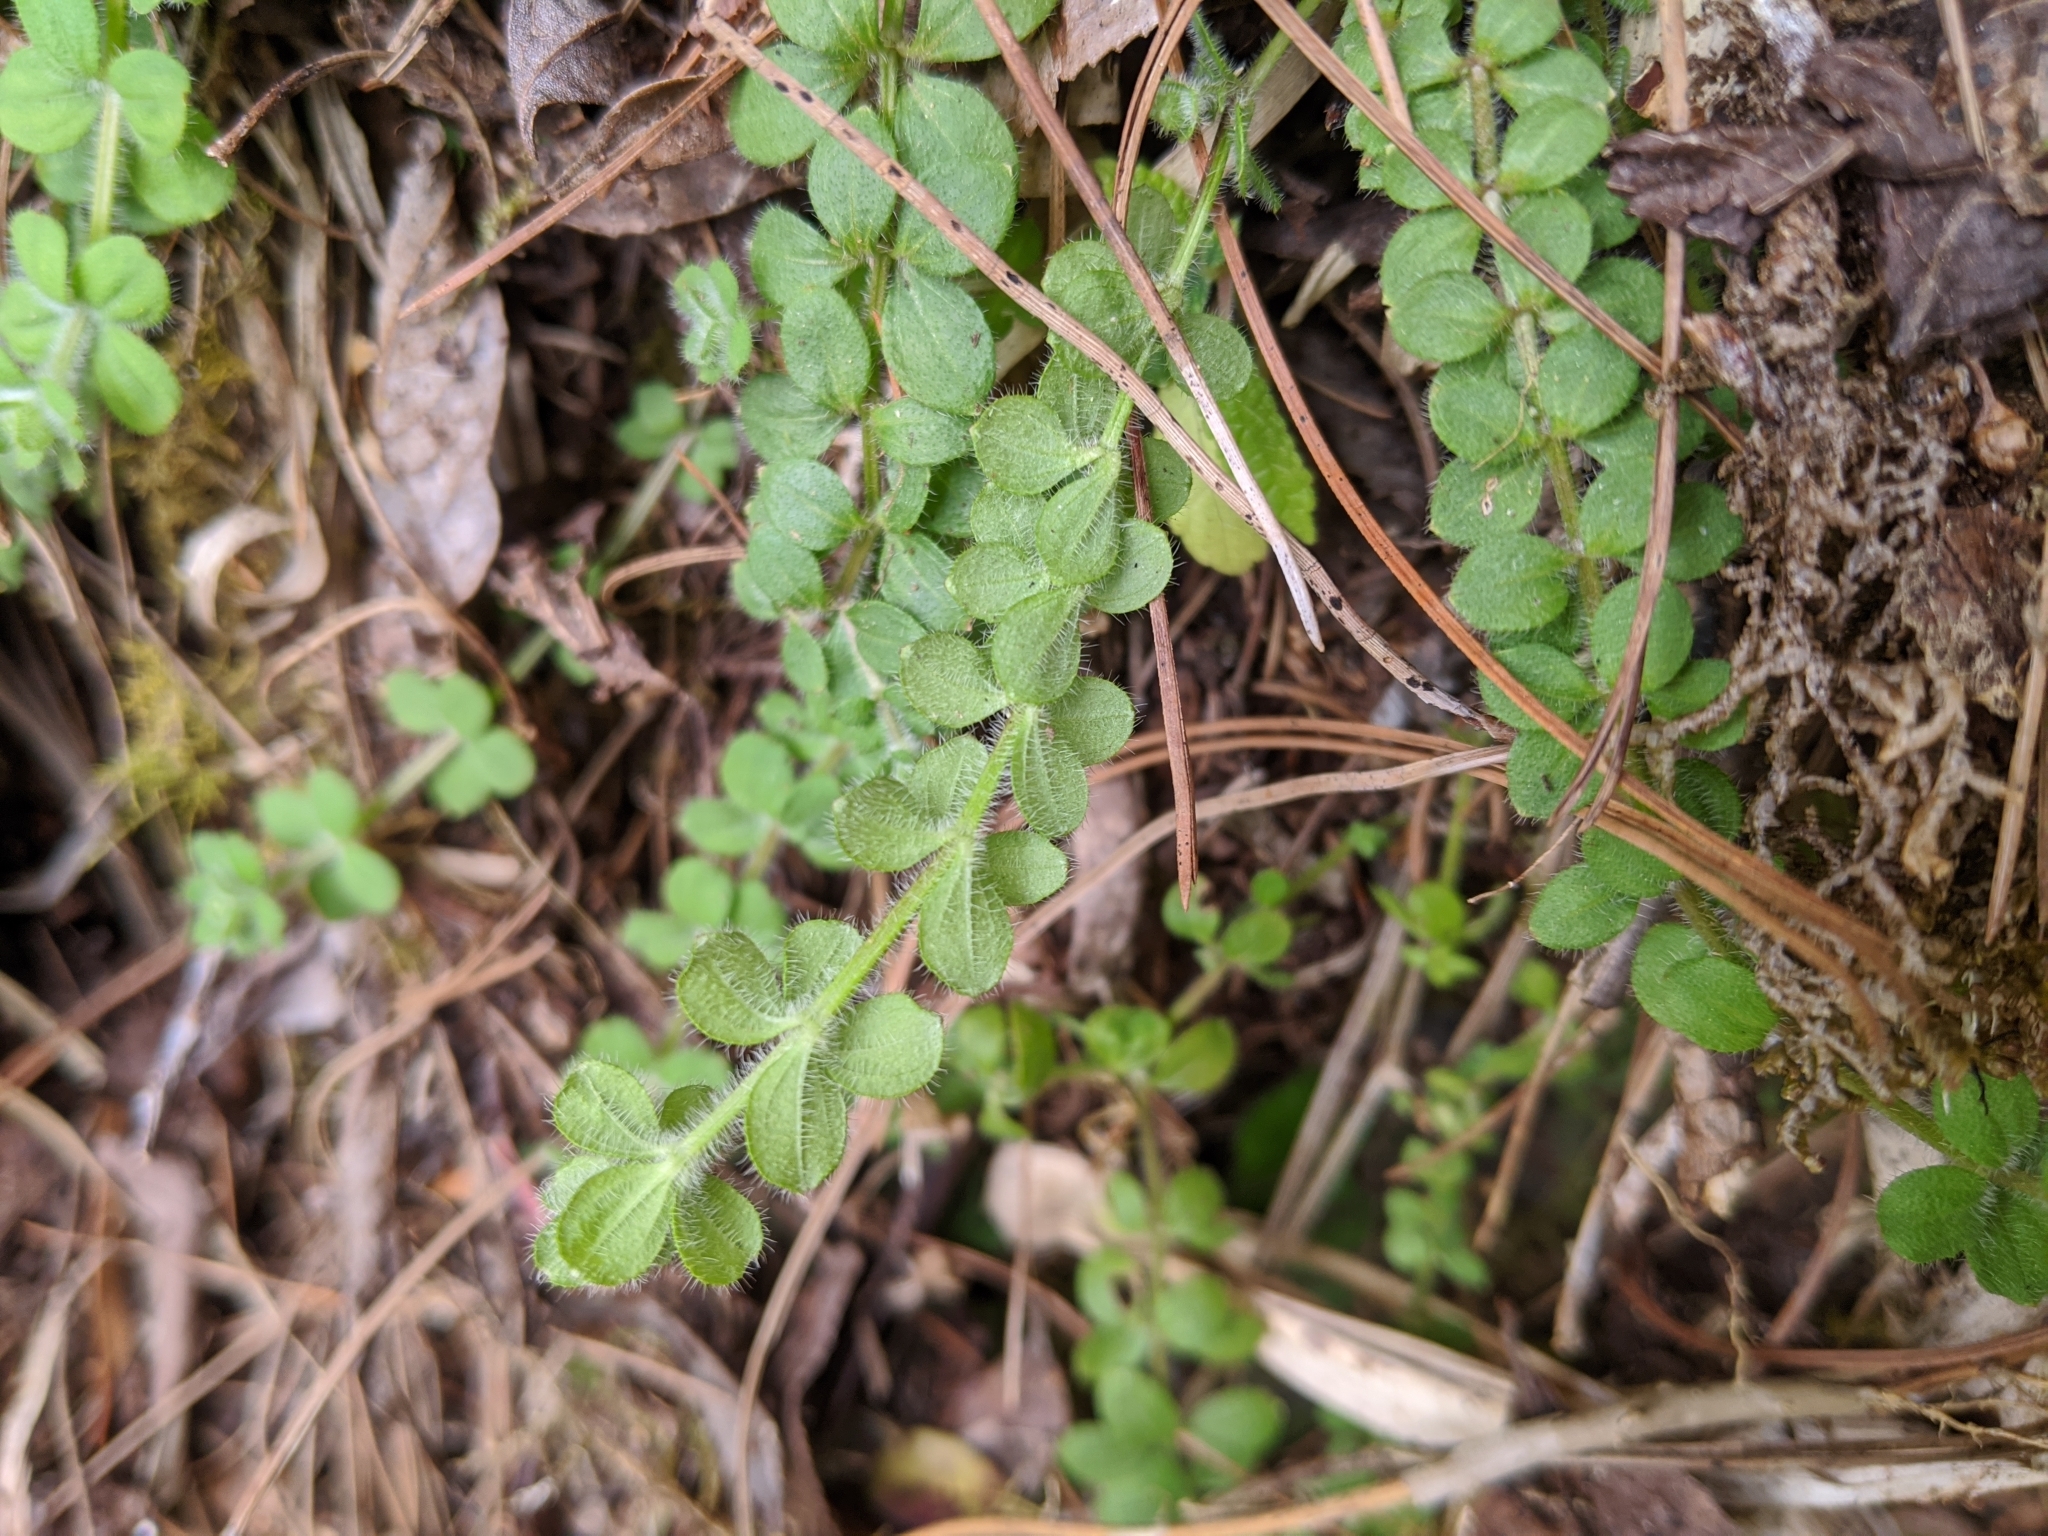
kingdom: Plantae
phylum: Tracheophyta
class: Magnoliopsida
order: Gentianales
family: Rubiaceae
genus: Galium
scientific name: Galium formosense
